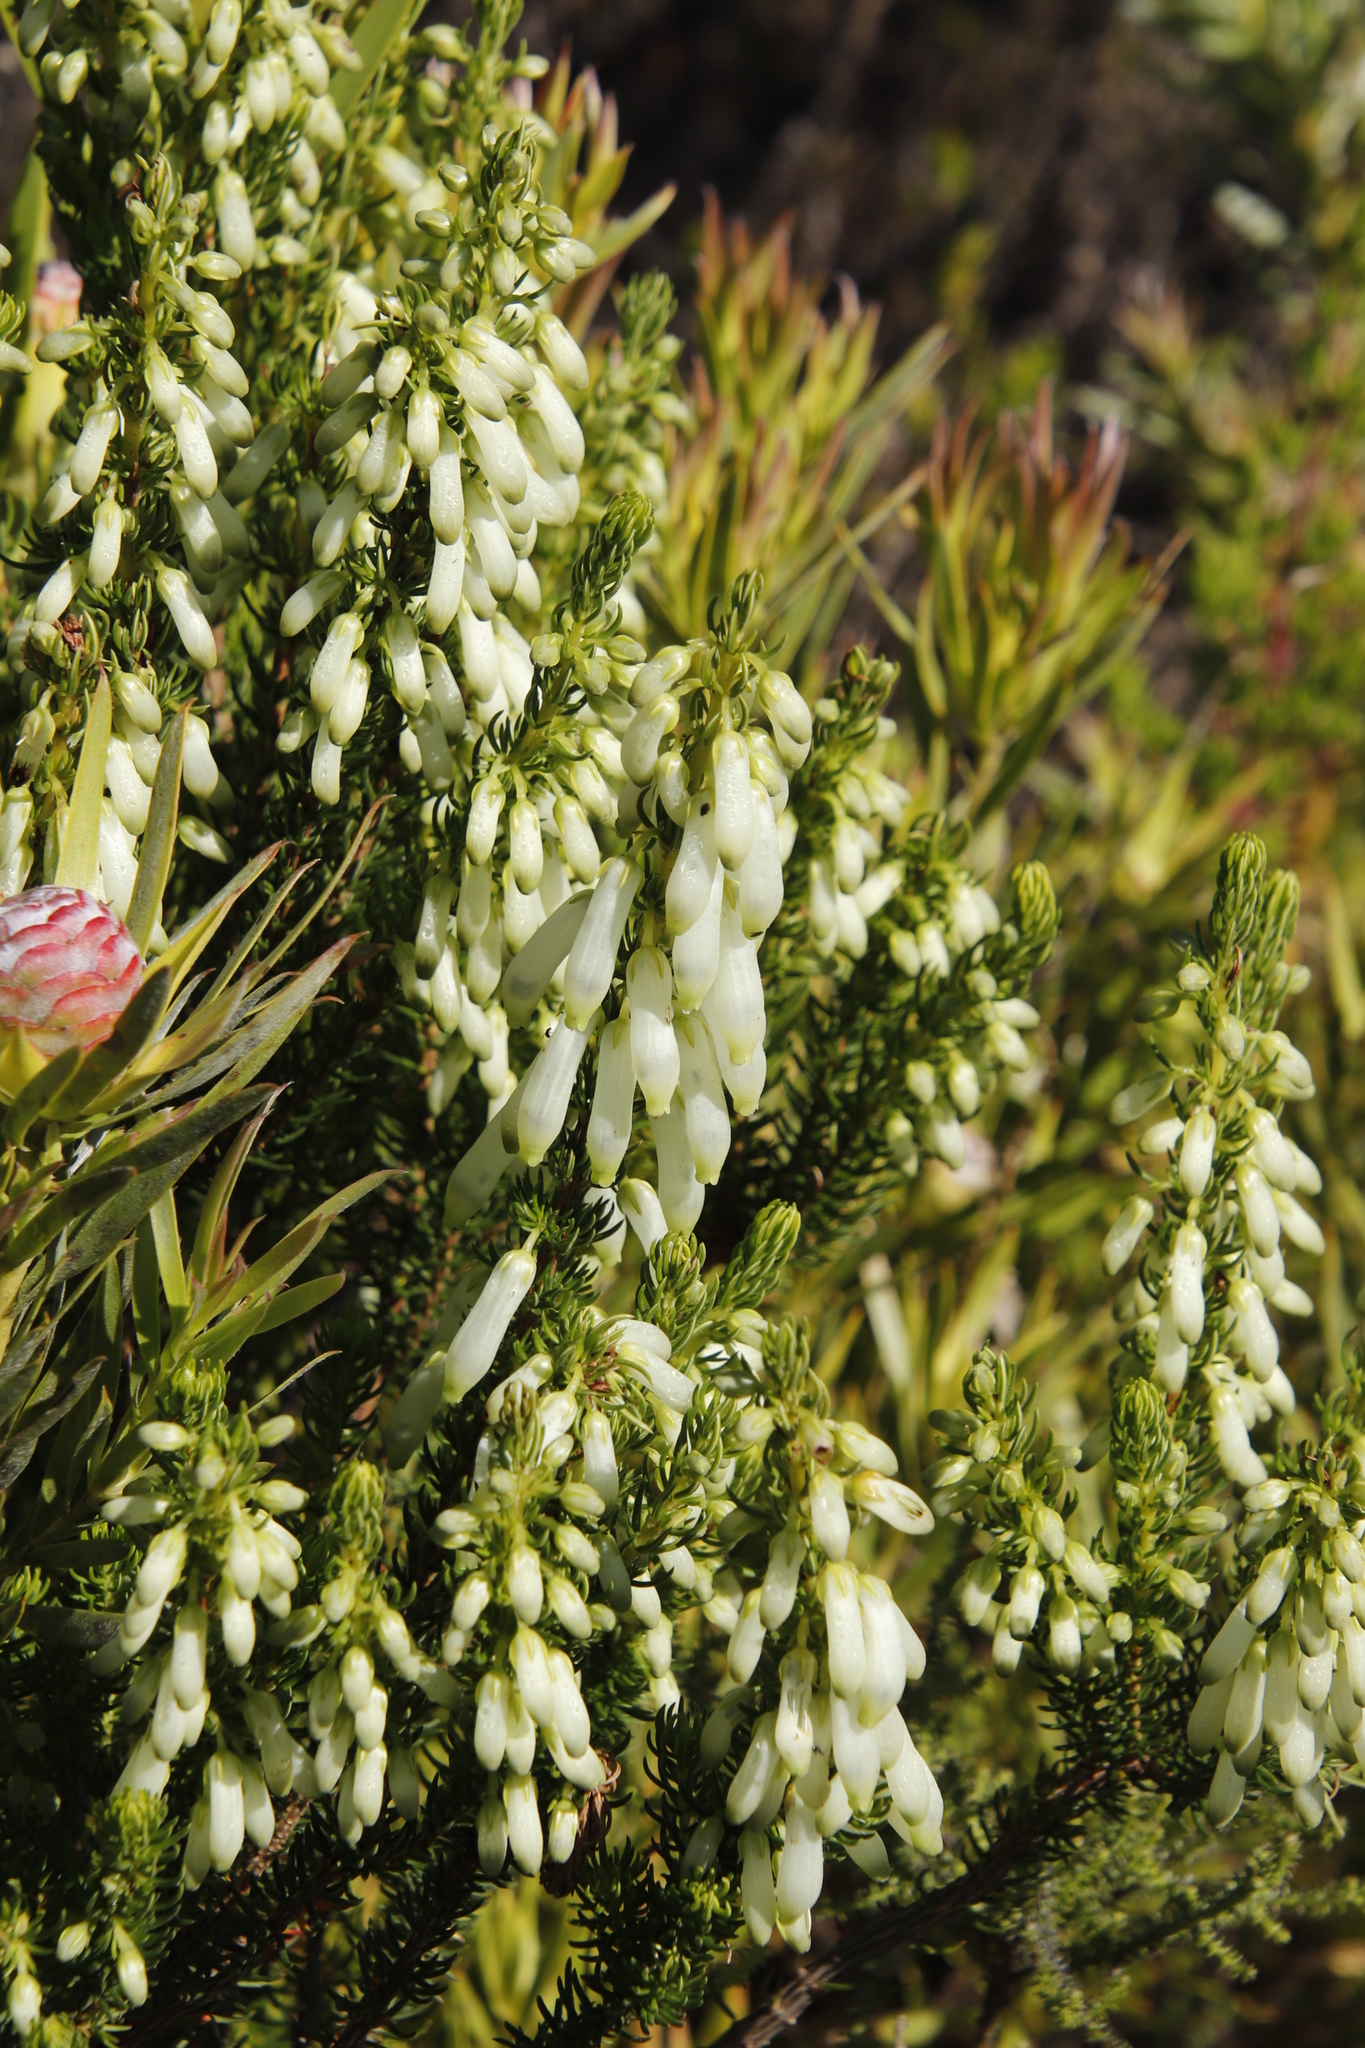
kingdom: Plantae
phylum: Tracheophyta
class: Magnoliopsida
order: Ericales
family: Ericaceae
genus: Erica
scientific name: Erica mammosa
